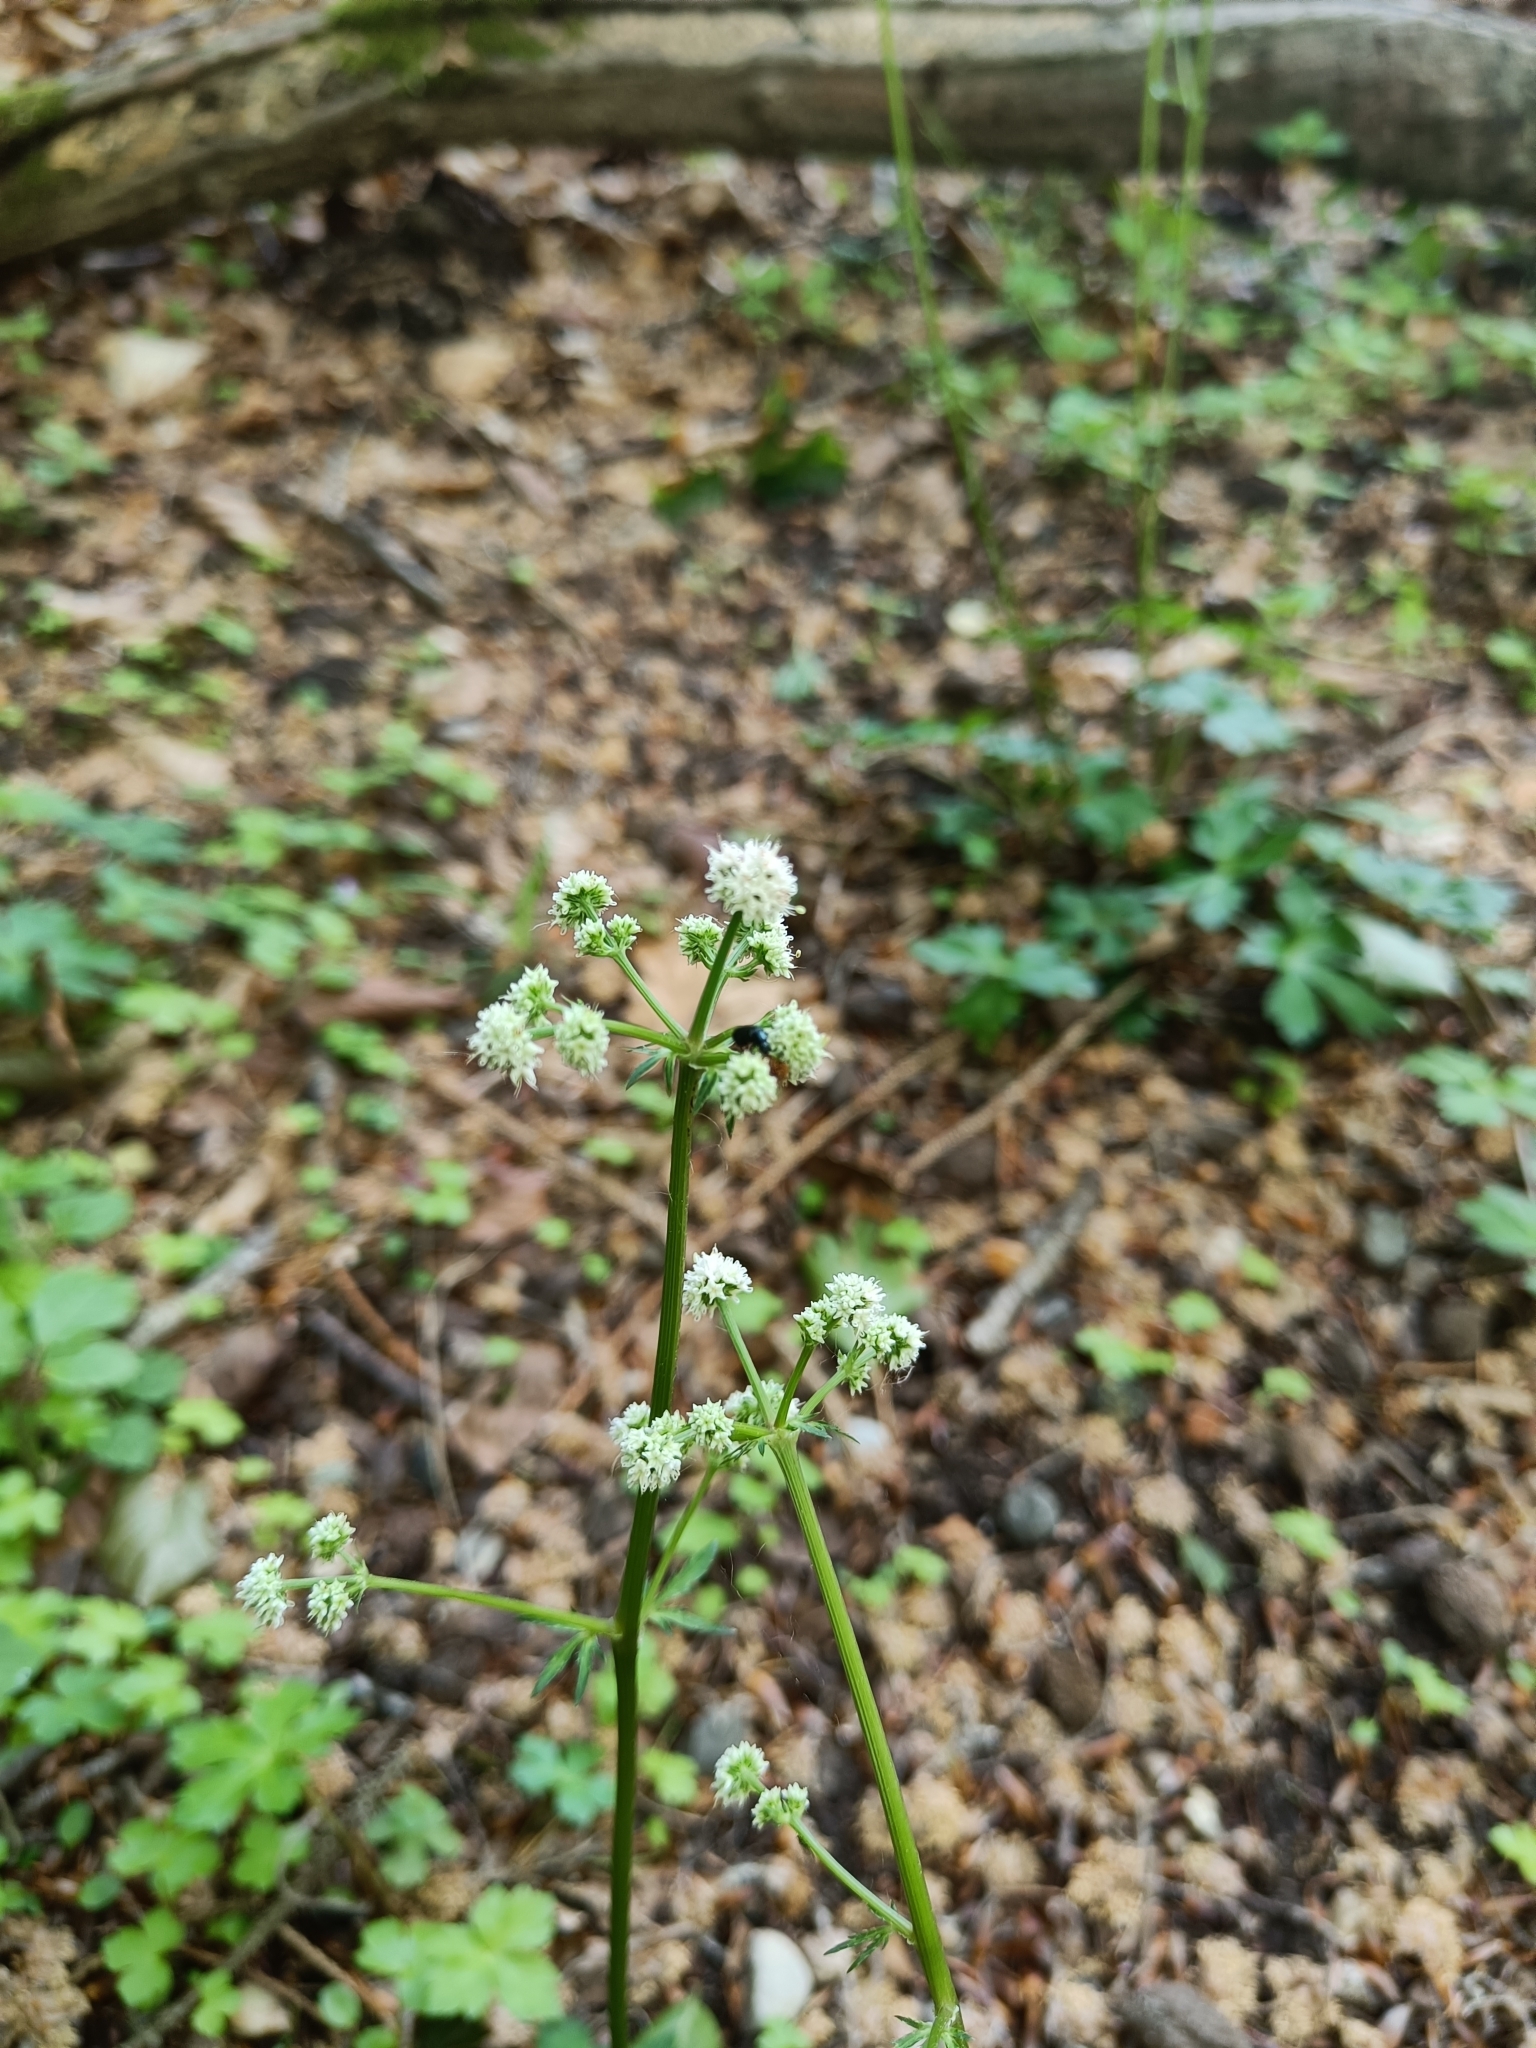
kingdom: Plantae
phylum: Tracheophyta
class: Magnoliopsida
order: Apiales
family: Apiaceae
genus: Sanicula
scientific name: Sanicula europaea
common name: Sanicle
